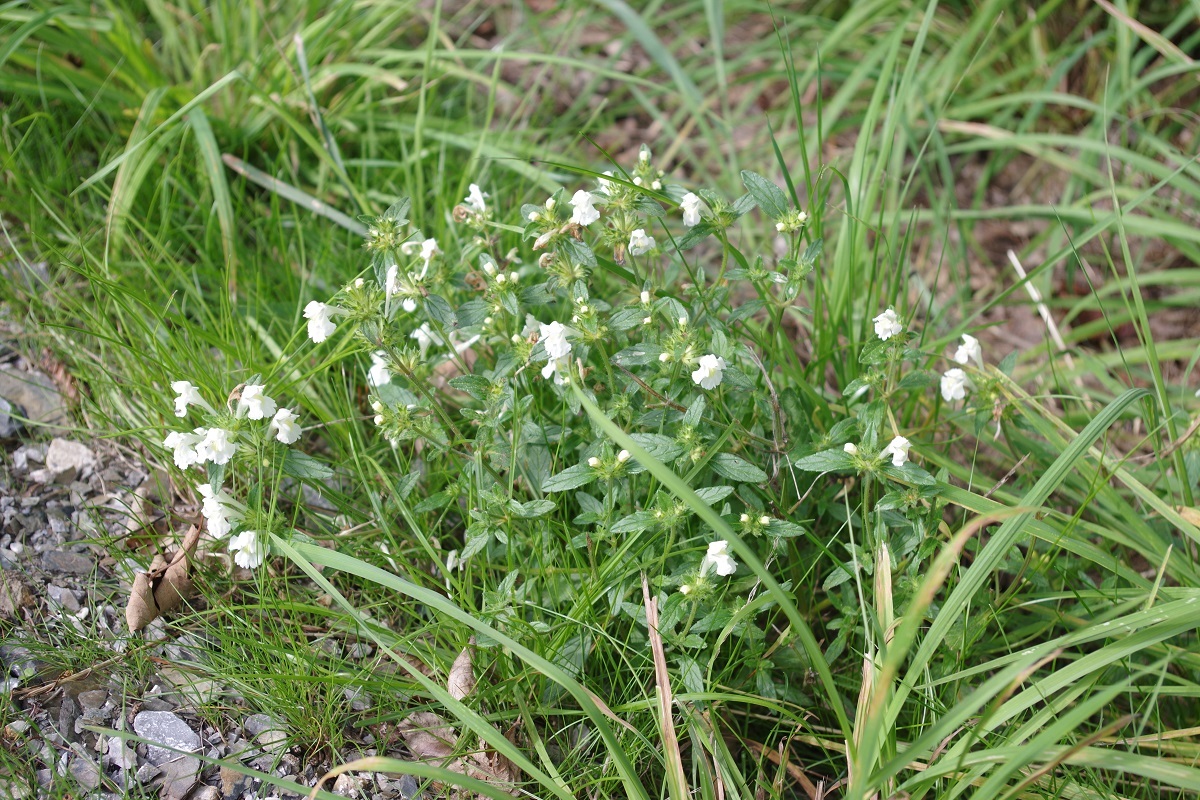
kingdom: Plantae
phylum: Tracheophyta
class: Magnoliopsida
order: Lamiales
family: Lamiaceae
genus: Galeopsis
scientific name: Galeopsis segetum
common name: Downy hemp-nettle
